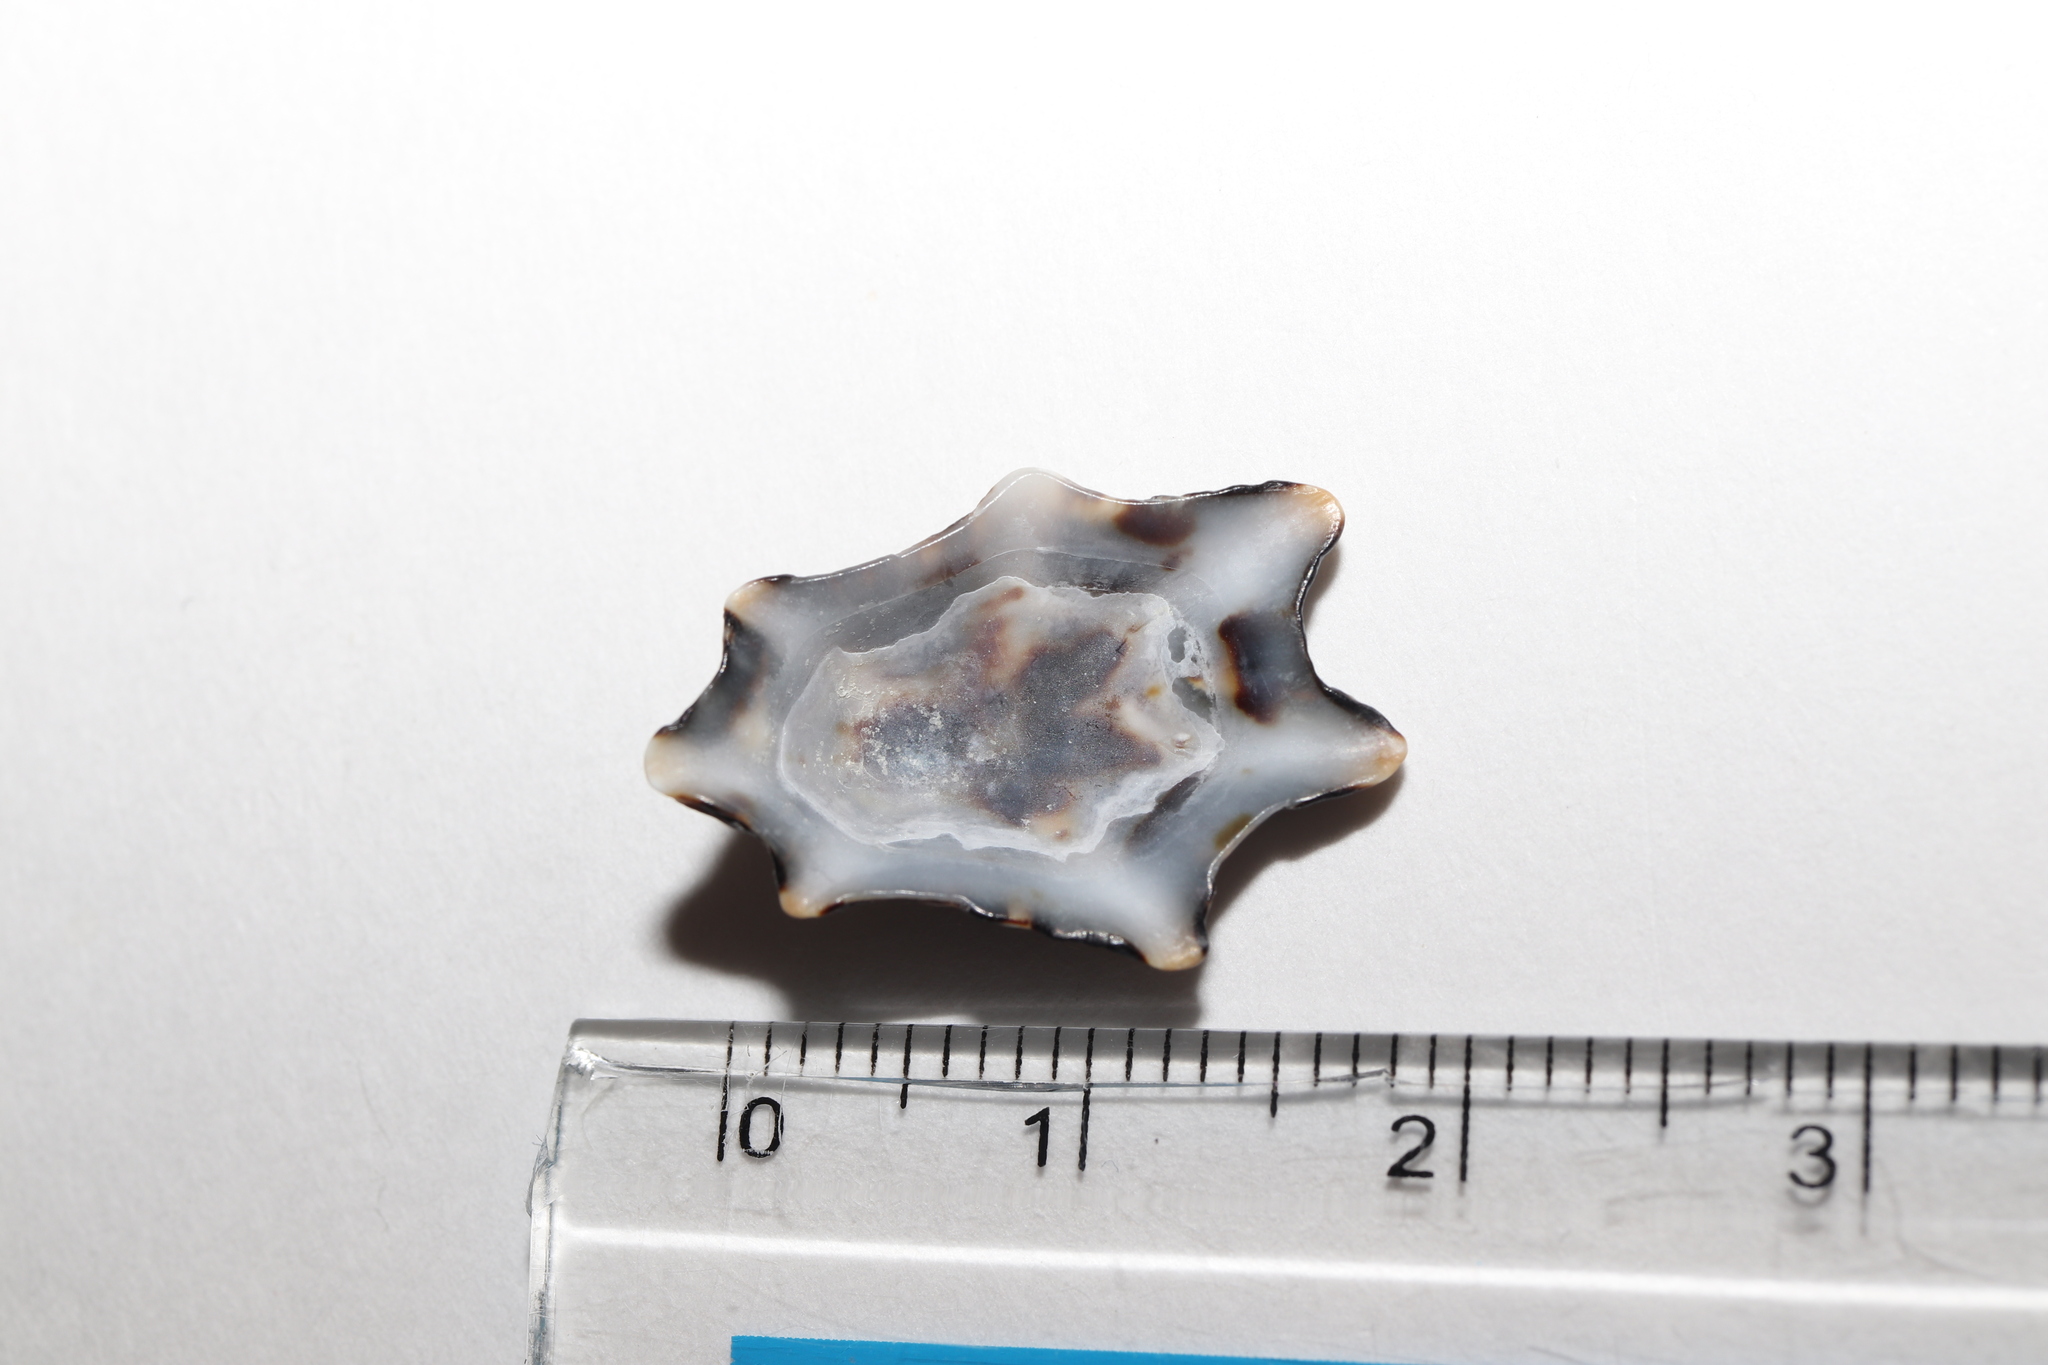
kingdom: Animalia
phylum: Mollusca
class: Gastropoda
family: Lottiidae
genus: Patelloida
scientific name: Patelloida saccharina
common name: Pacific sugar limpet
